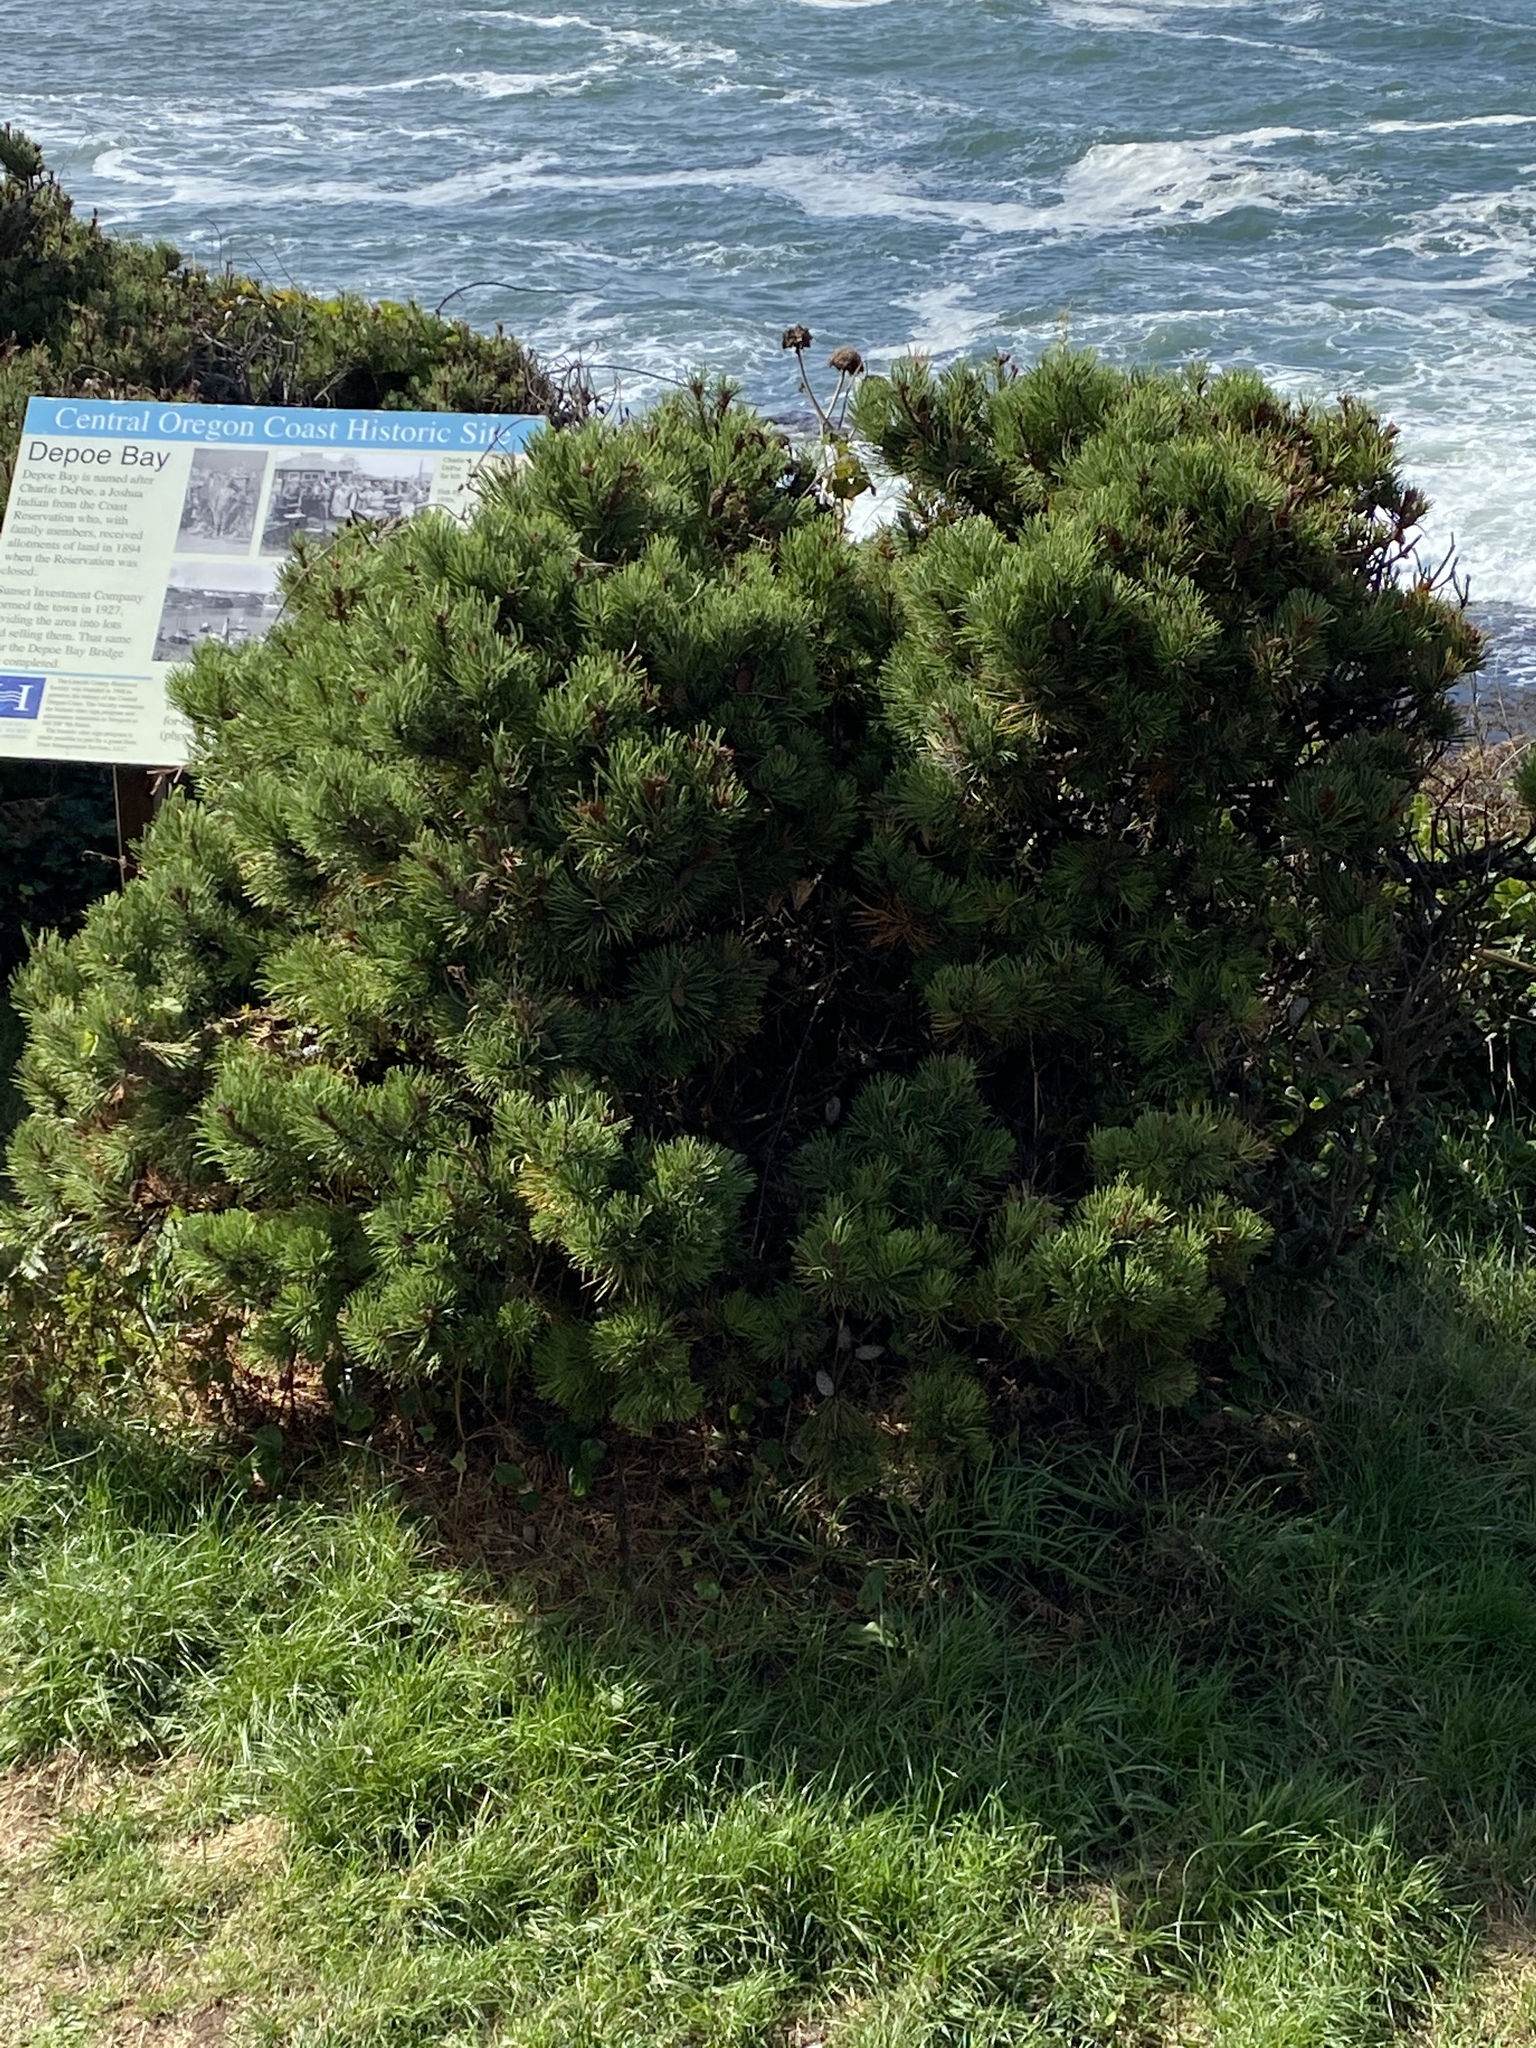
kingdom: Plantae
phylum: Tracheophyta
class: Pinopsida
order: Pinales
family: Pinaceae
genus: Pinus
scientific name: Pinus contorta
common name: Lodgepole pine
